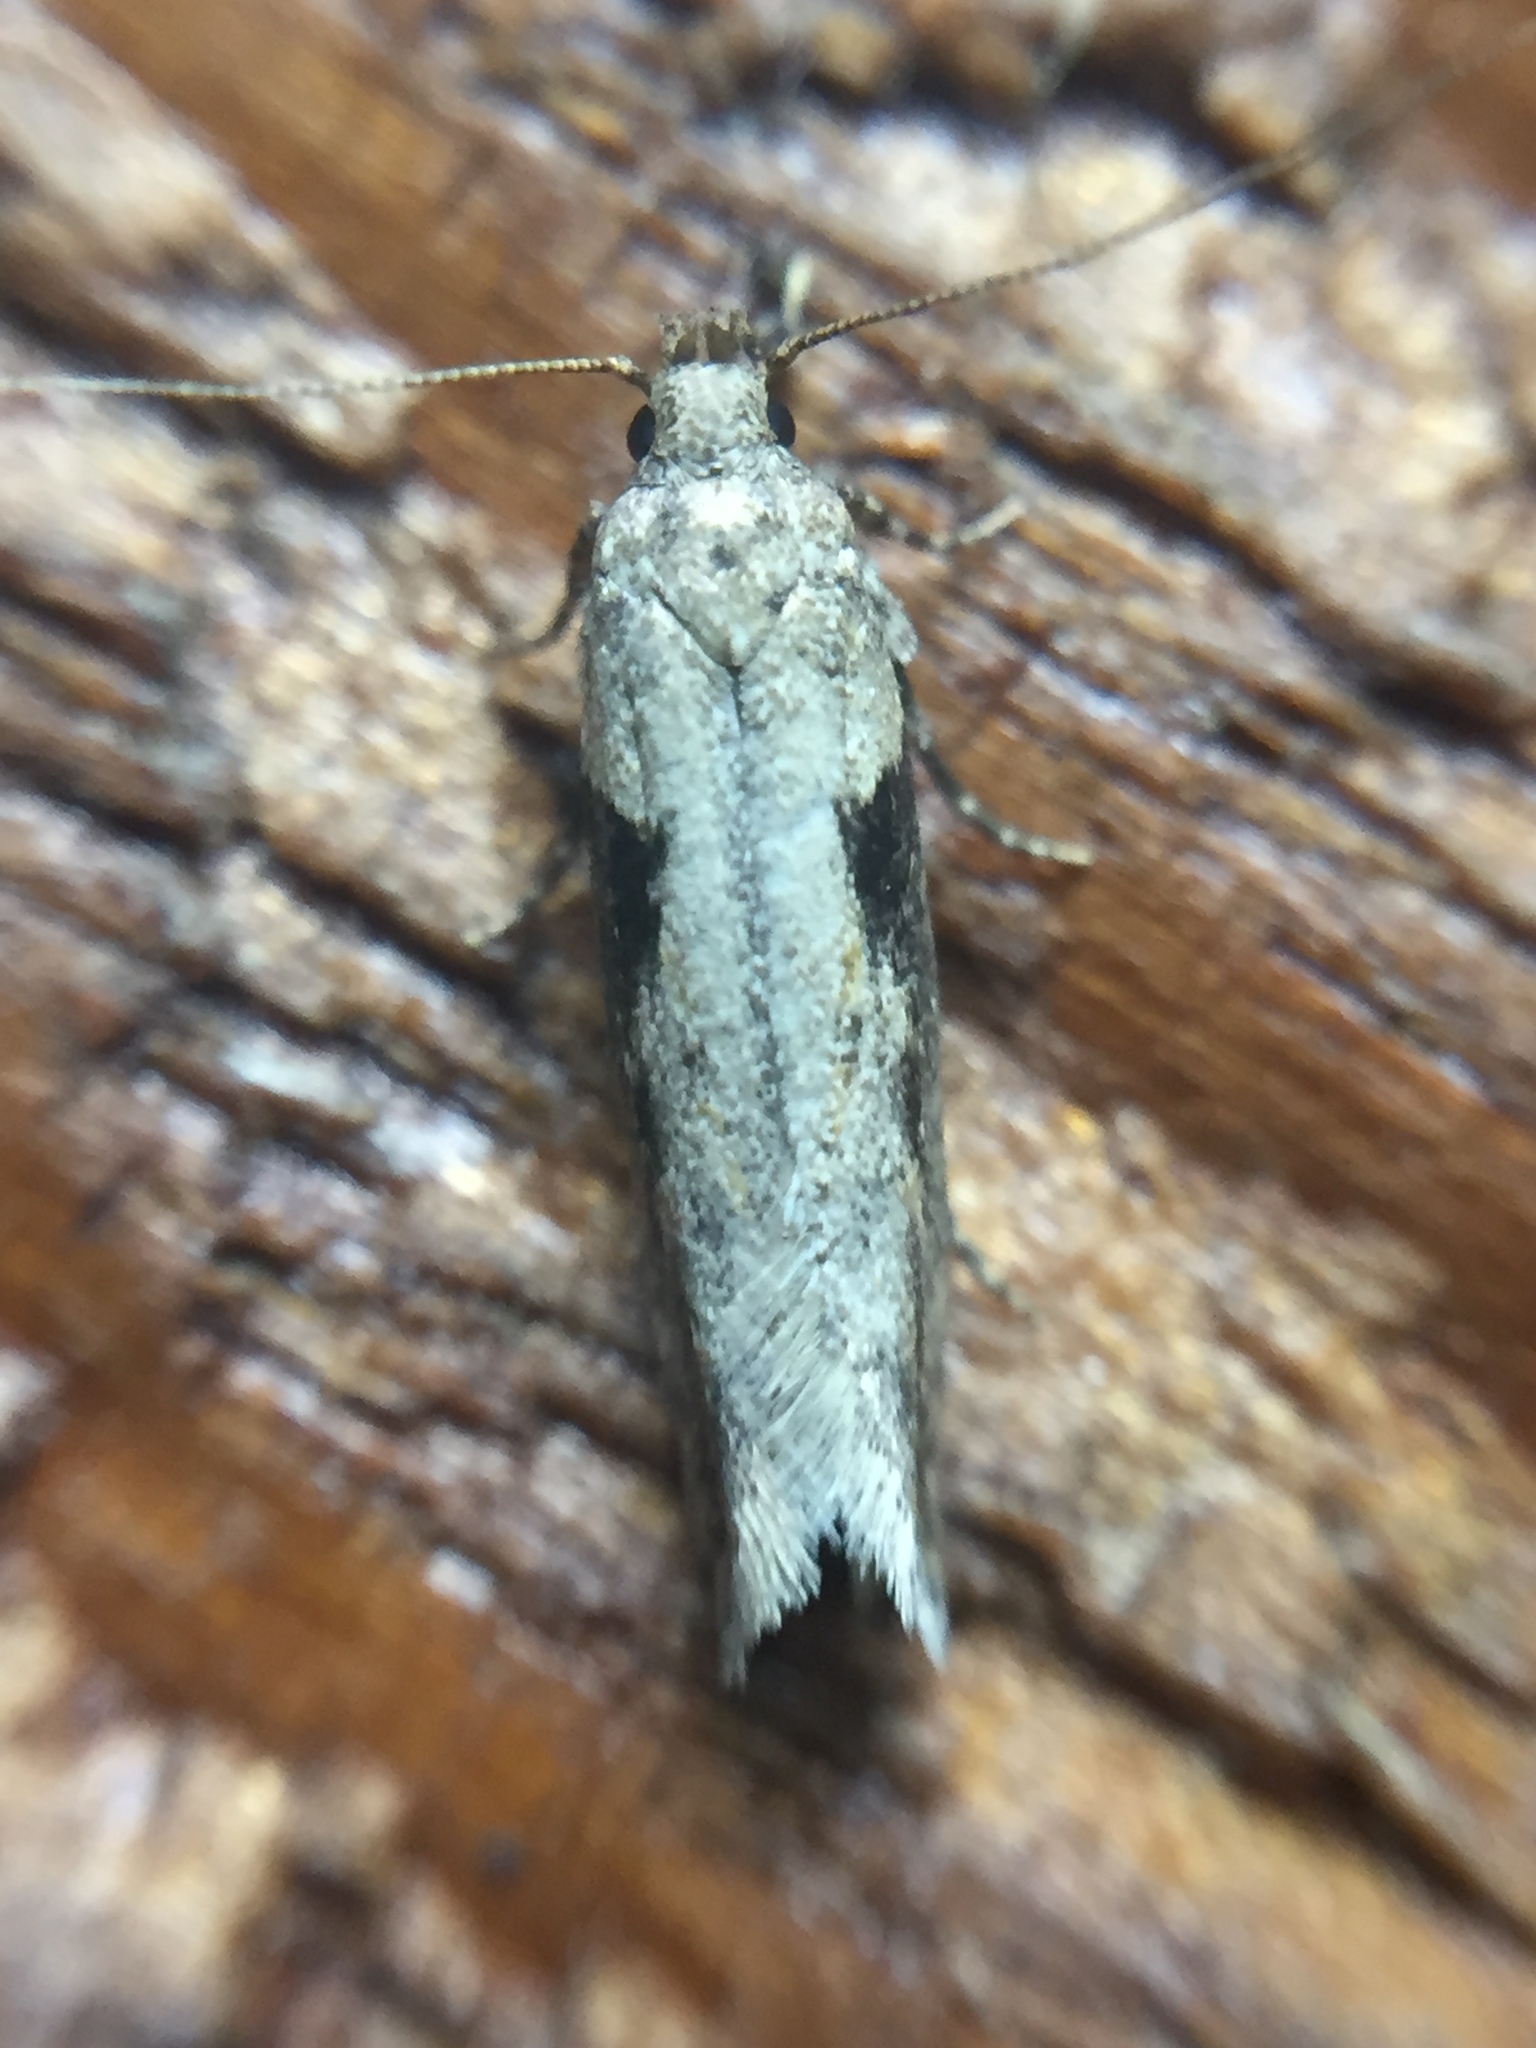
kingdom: Animalia
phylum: Arthropoda
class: Insecta
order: Lepidoptera
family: Gelechiidae
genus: Symmetrischema
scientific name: Symmetrischema tangolias
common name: Moth
